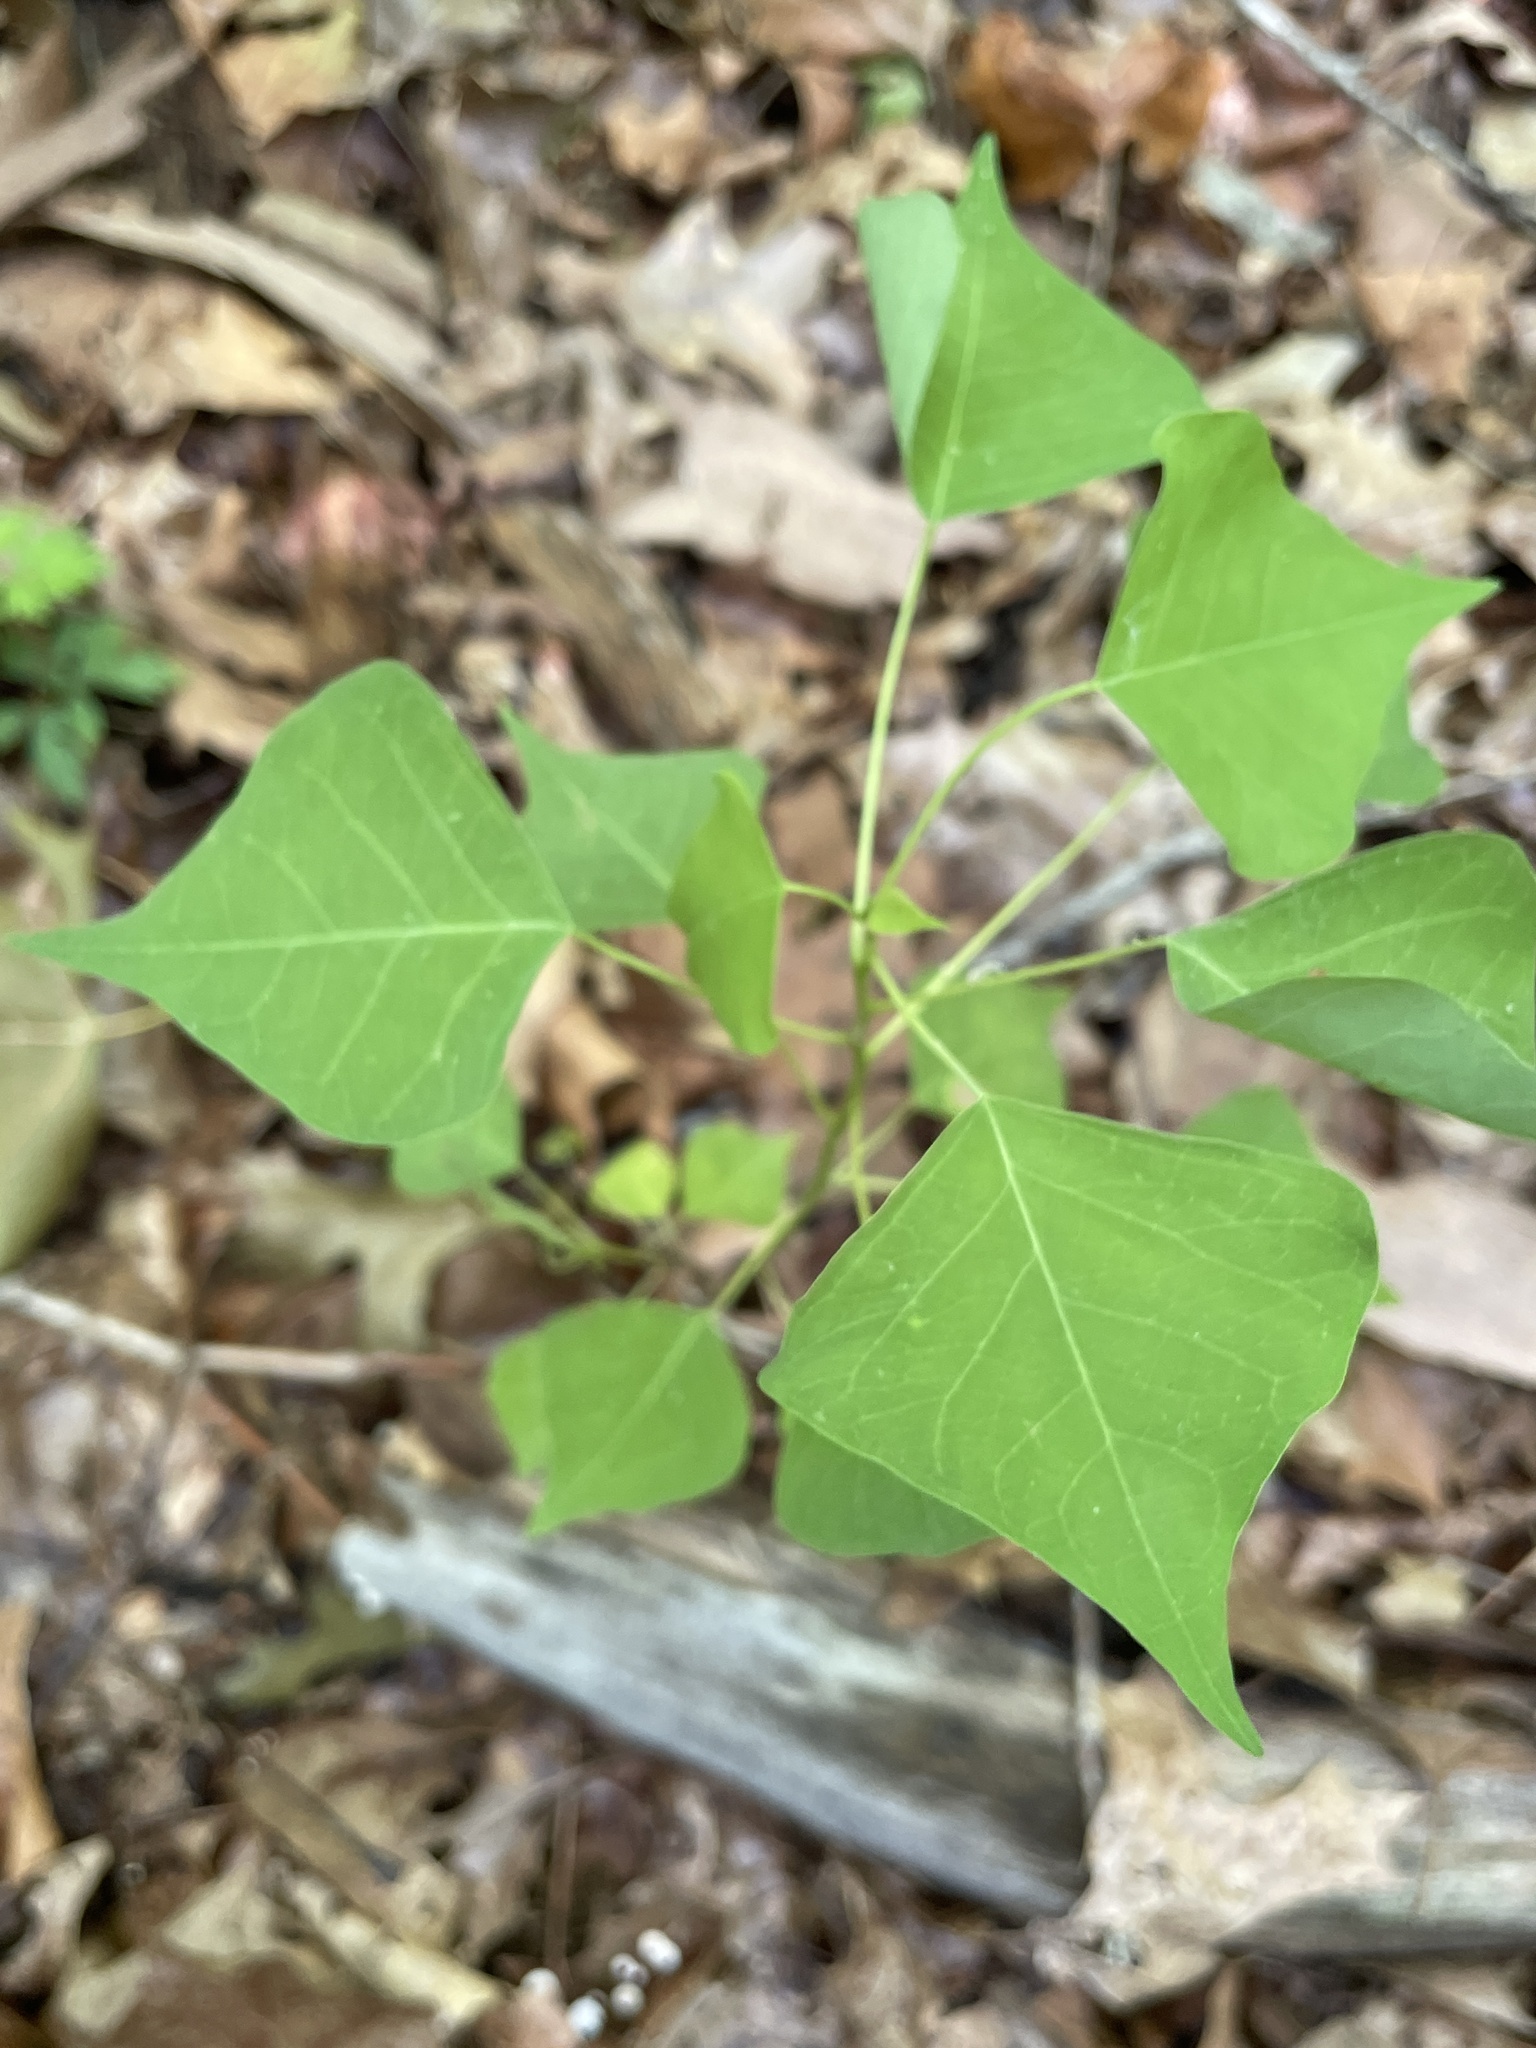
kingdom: Plantae
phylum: Tracheophyta
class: Magnoliopsida
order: Malpighiales
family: Euphorbiaceae
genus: Triadica
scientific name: Triadica sebifera
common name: Chinese tallow
